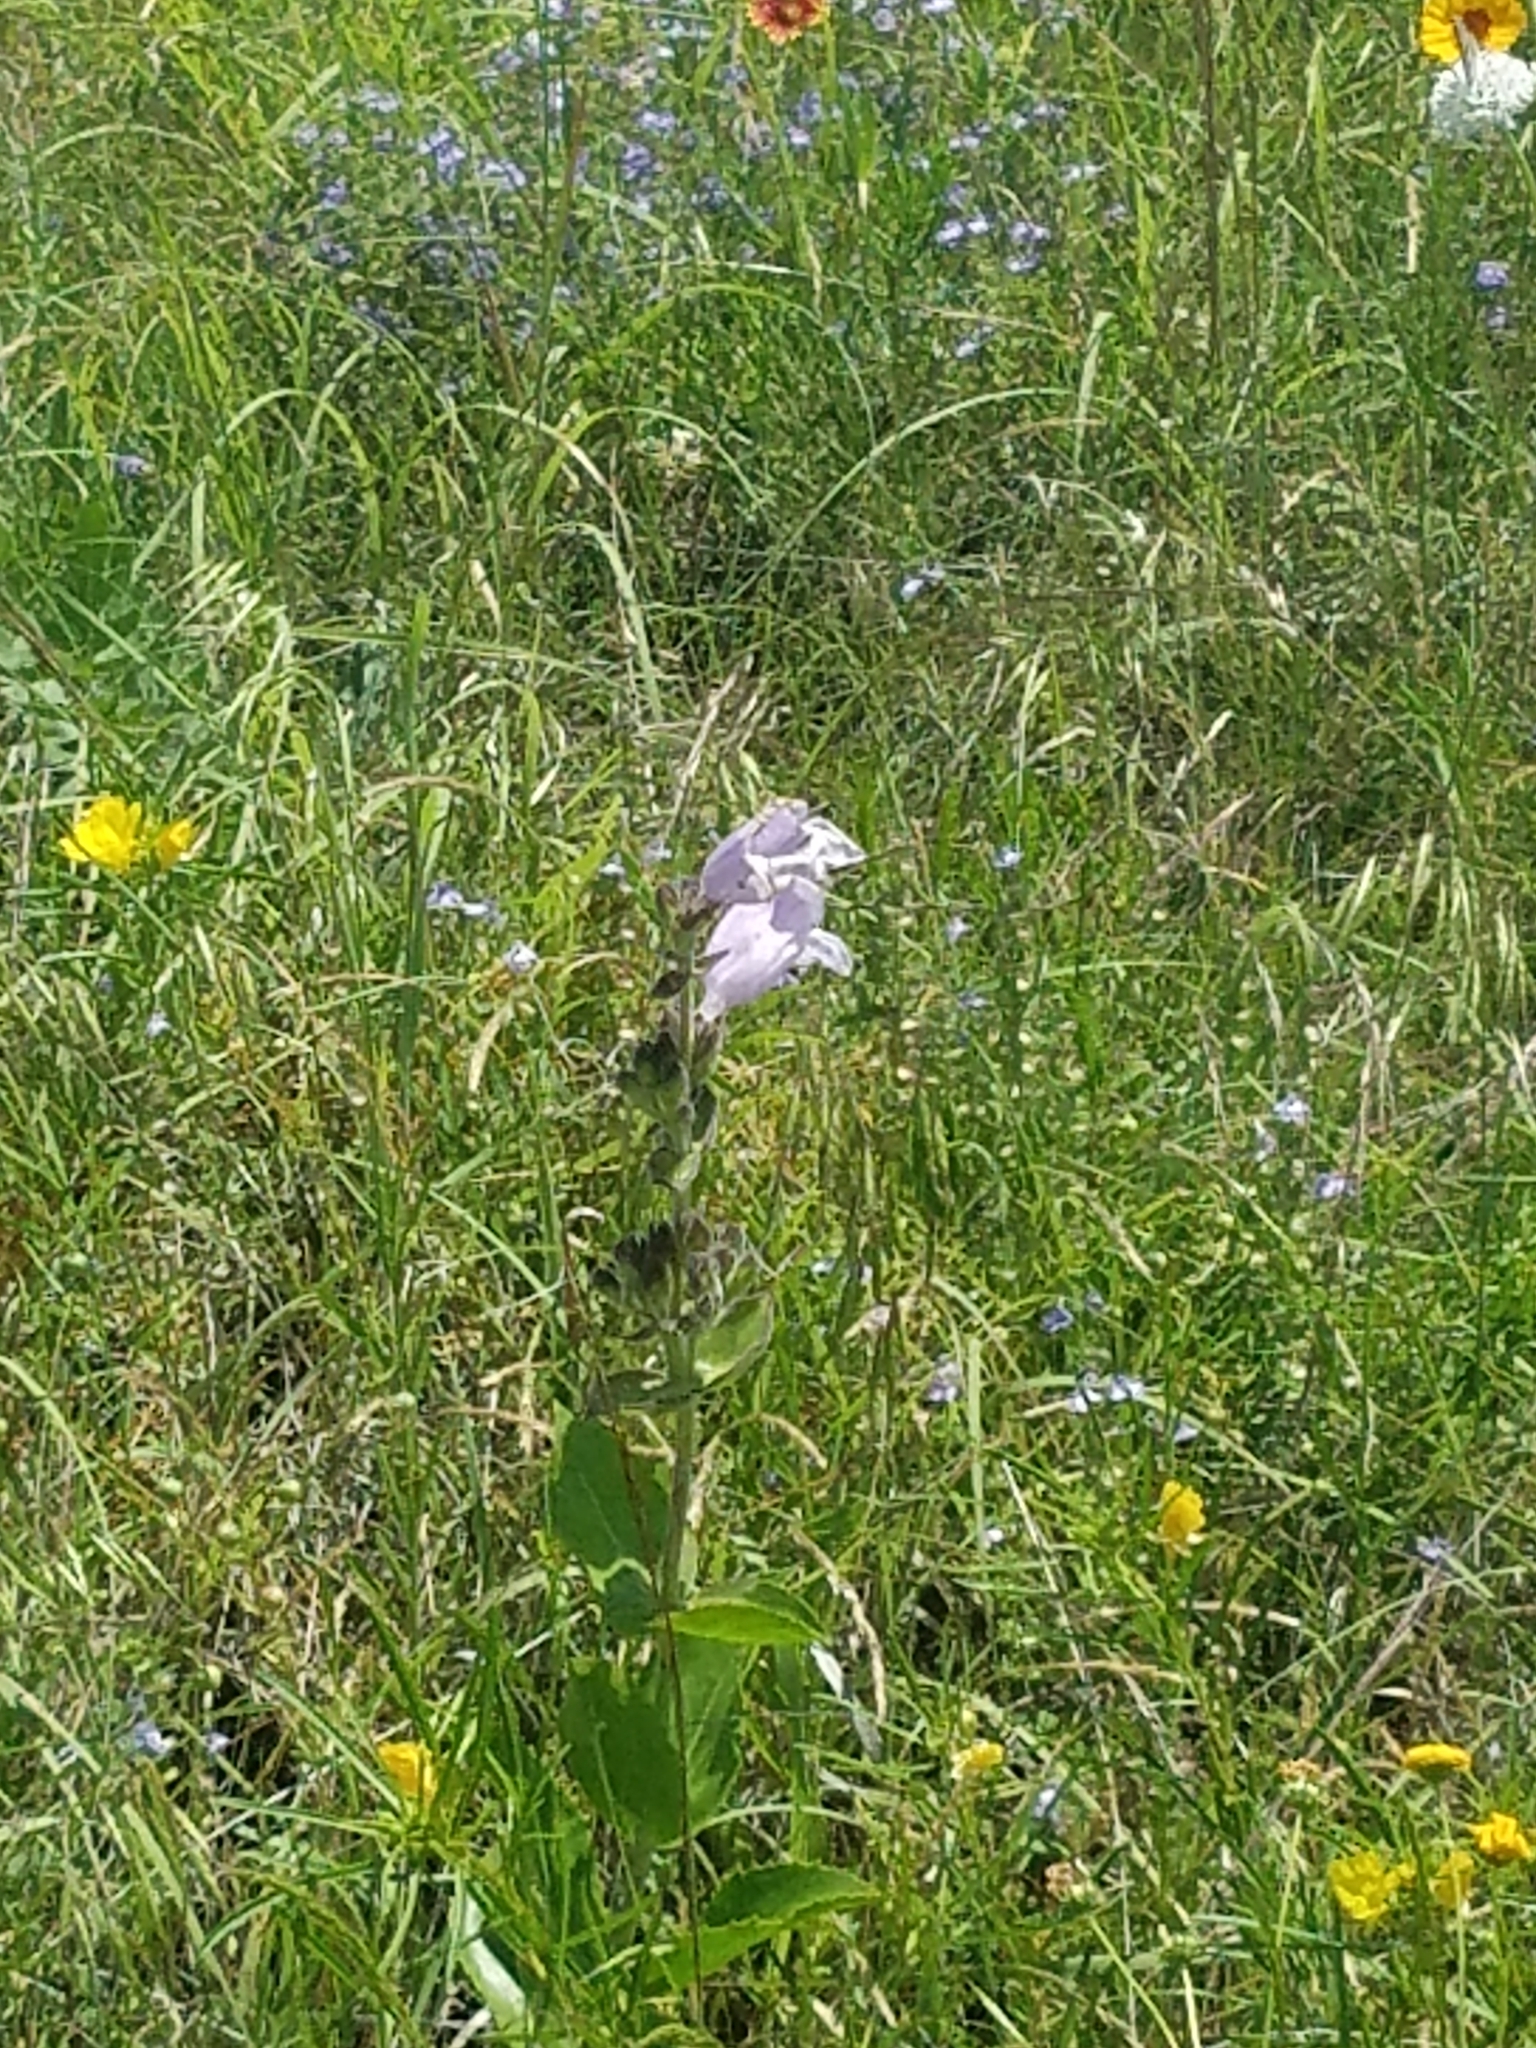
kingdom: Plantae
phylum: Tracheophyta
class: Magnoliopsida
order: Lamiales
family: Plantaginaceae
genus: Penstemon
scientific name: Penstemon cobaea
